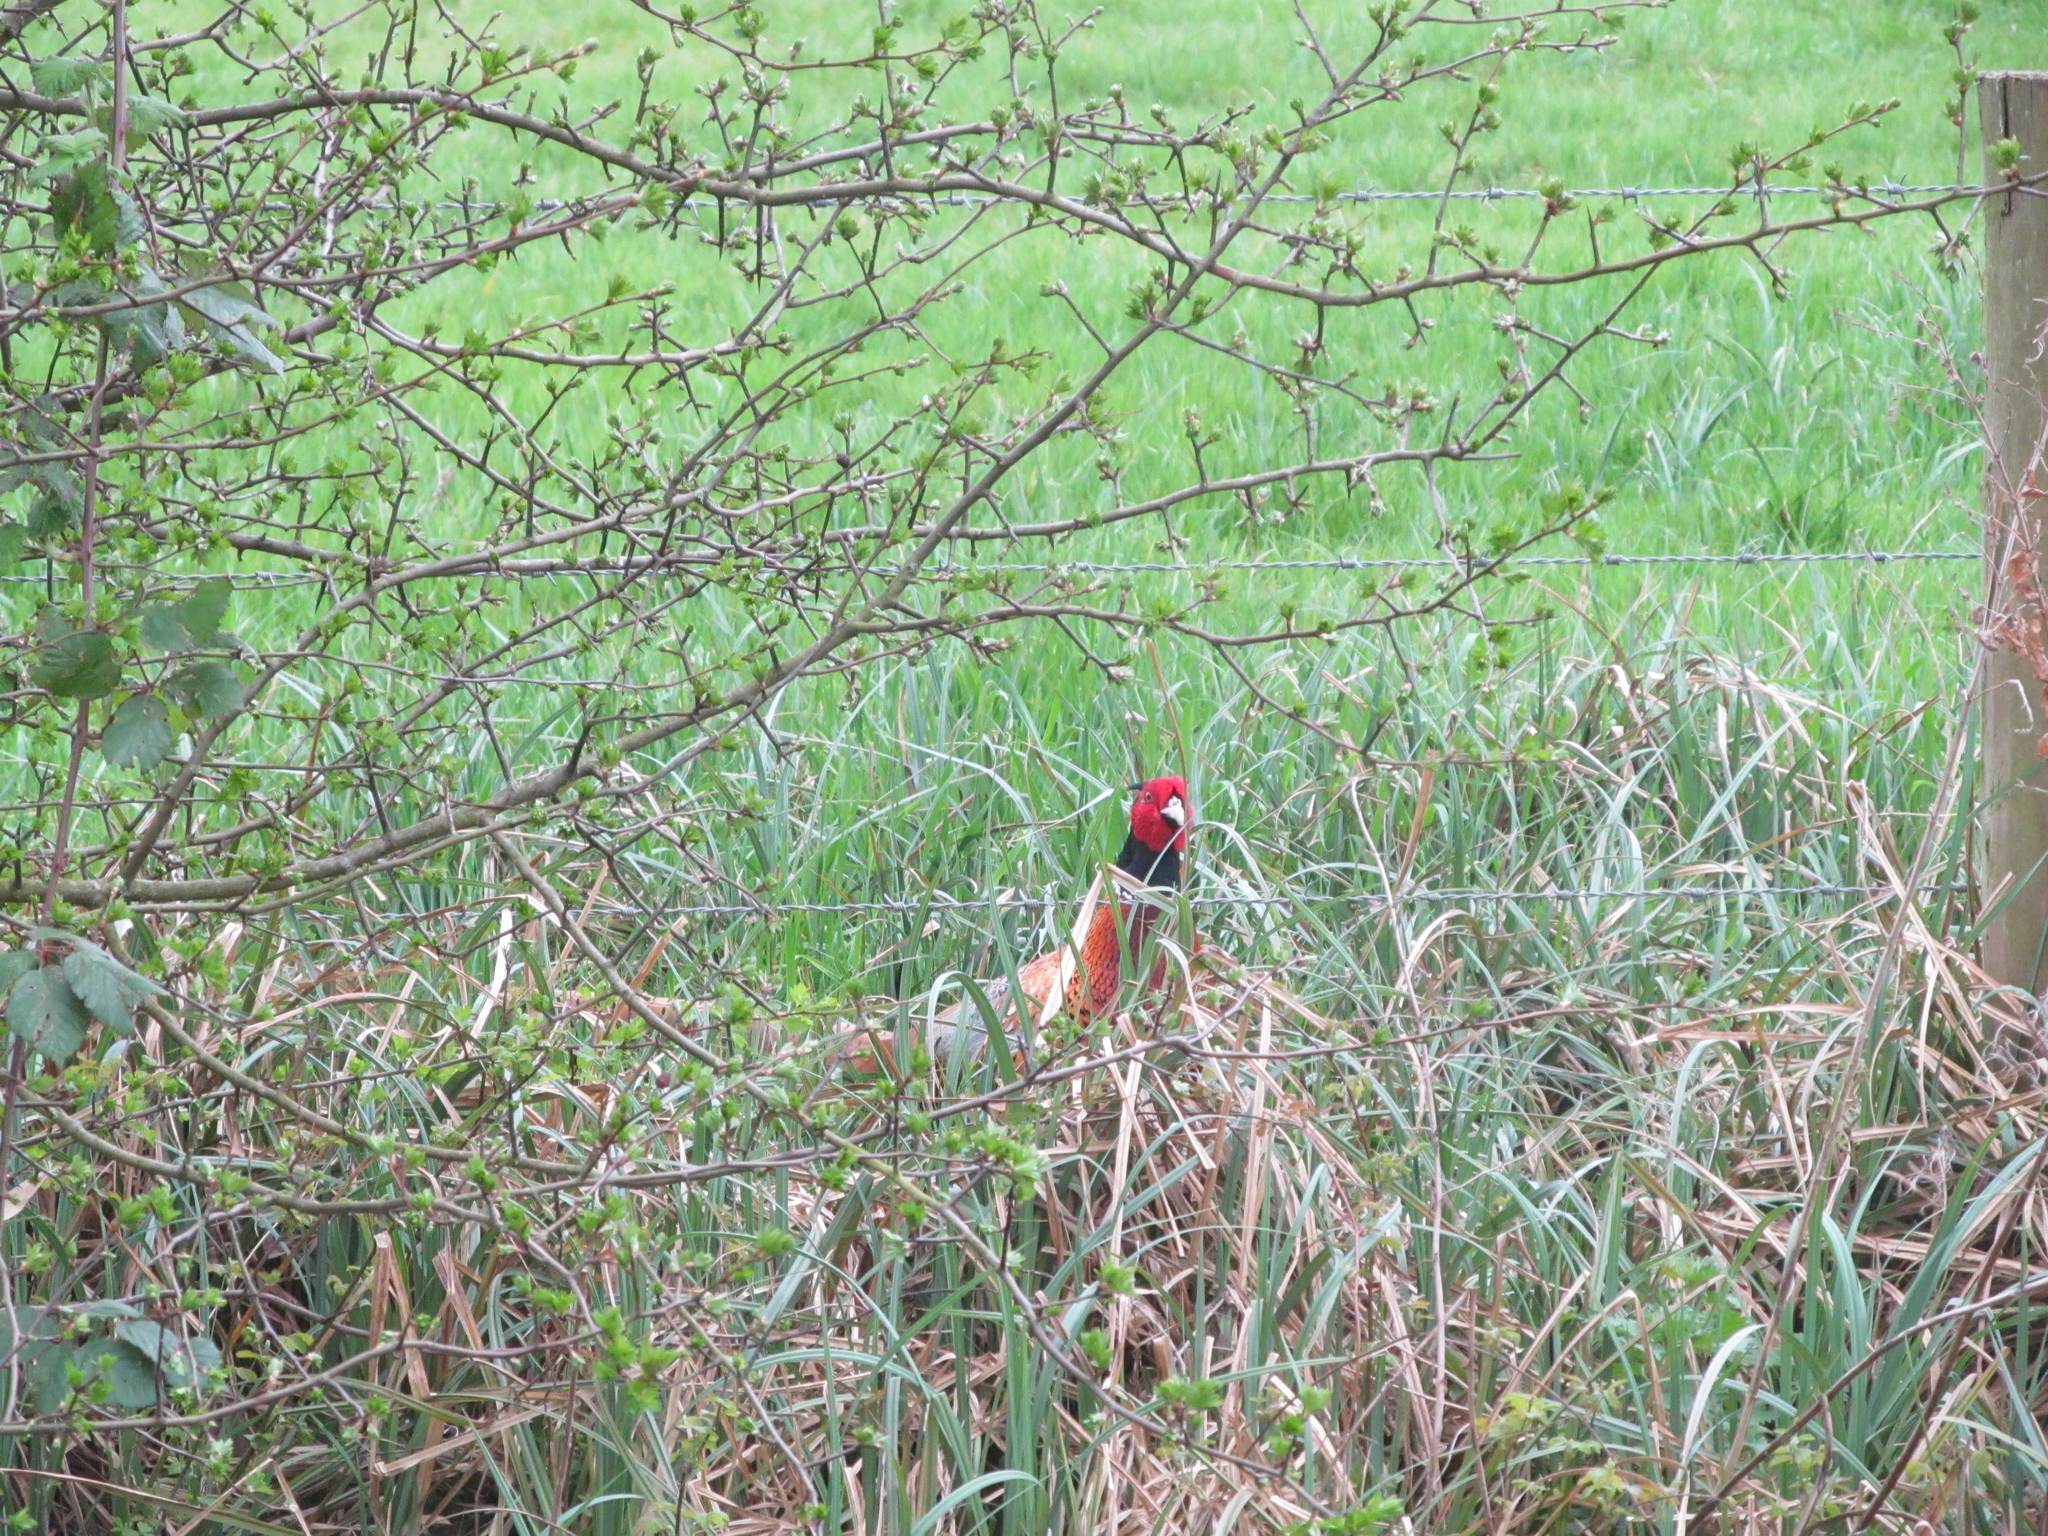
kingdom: Animalia
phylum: Chordata
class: Aves
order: Galliformes
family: Phasianidae
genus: Phasianus
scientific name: Phasianus colchicus
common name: Common pheasant
